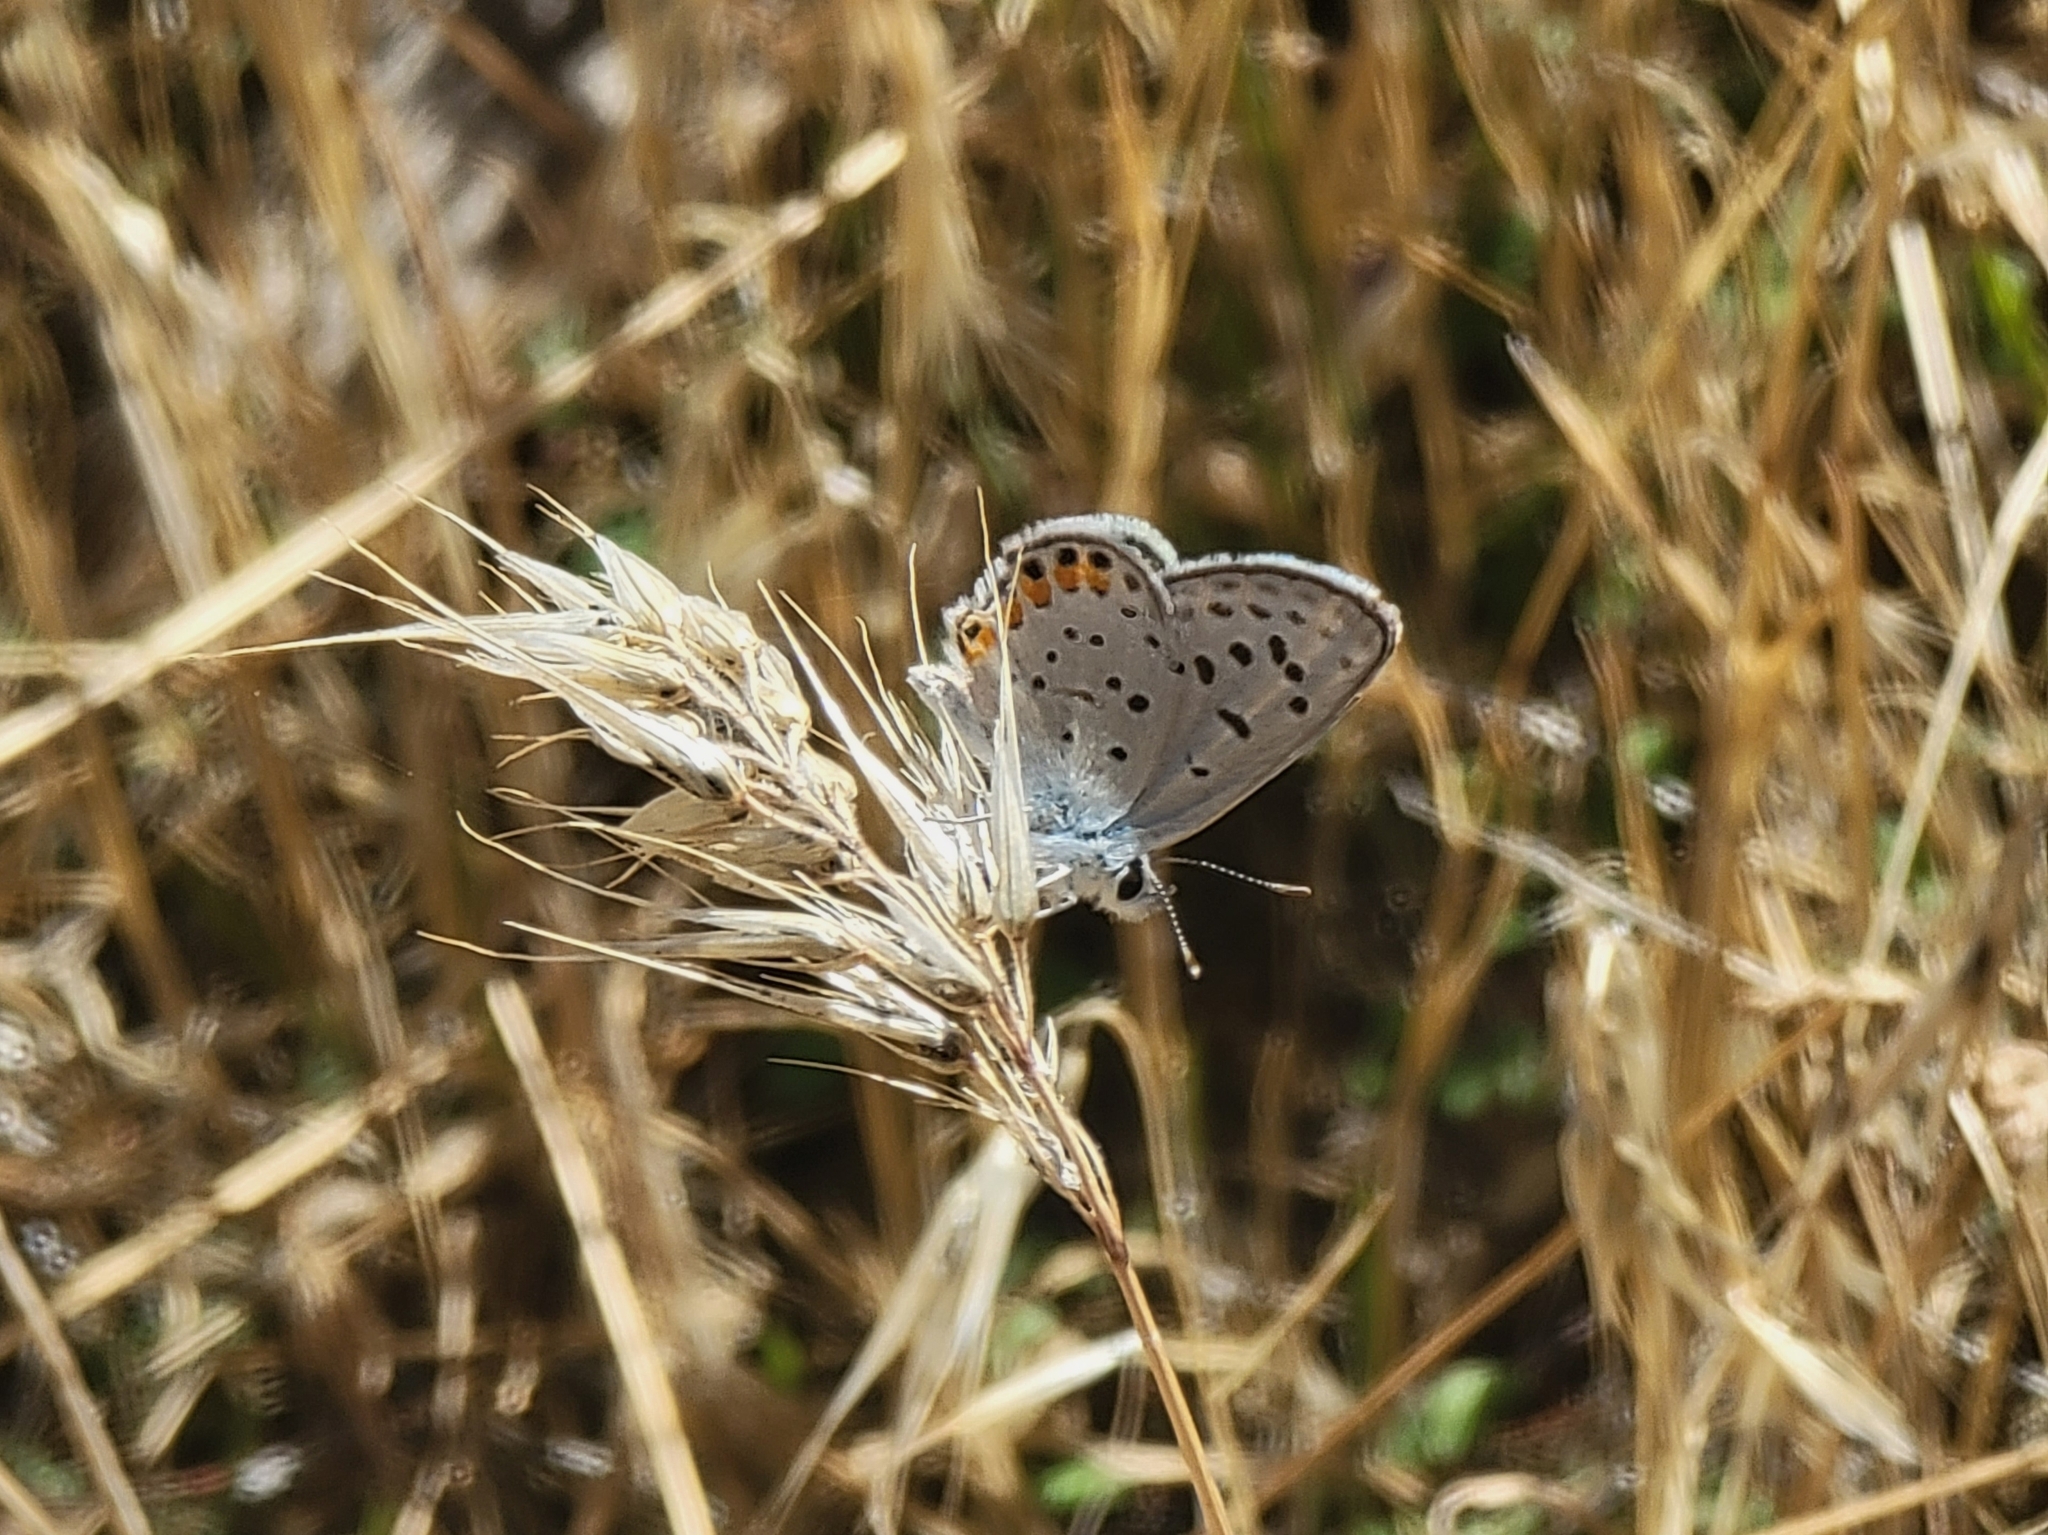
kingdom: Animalia
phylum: Arthropoda
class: Insecta
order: Lepidoptera
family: Lycaenidae
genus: Icaricia
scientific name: Icaricia acmon
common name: Acmon blue
